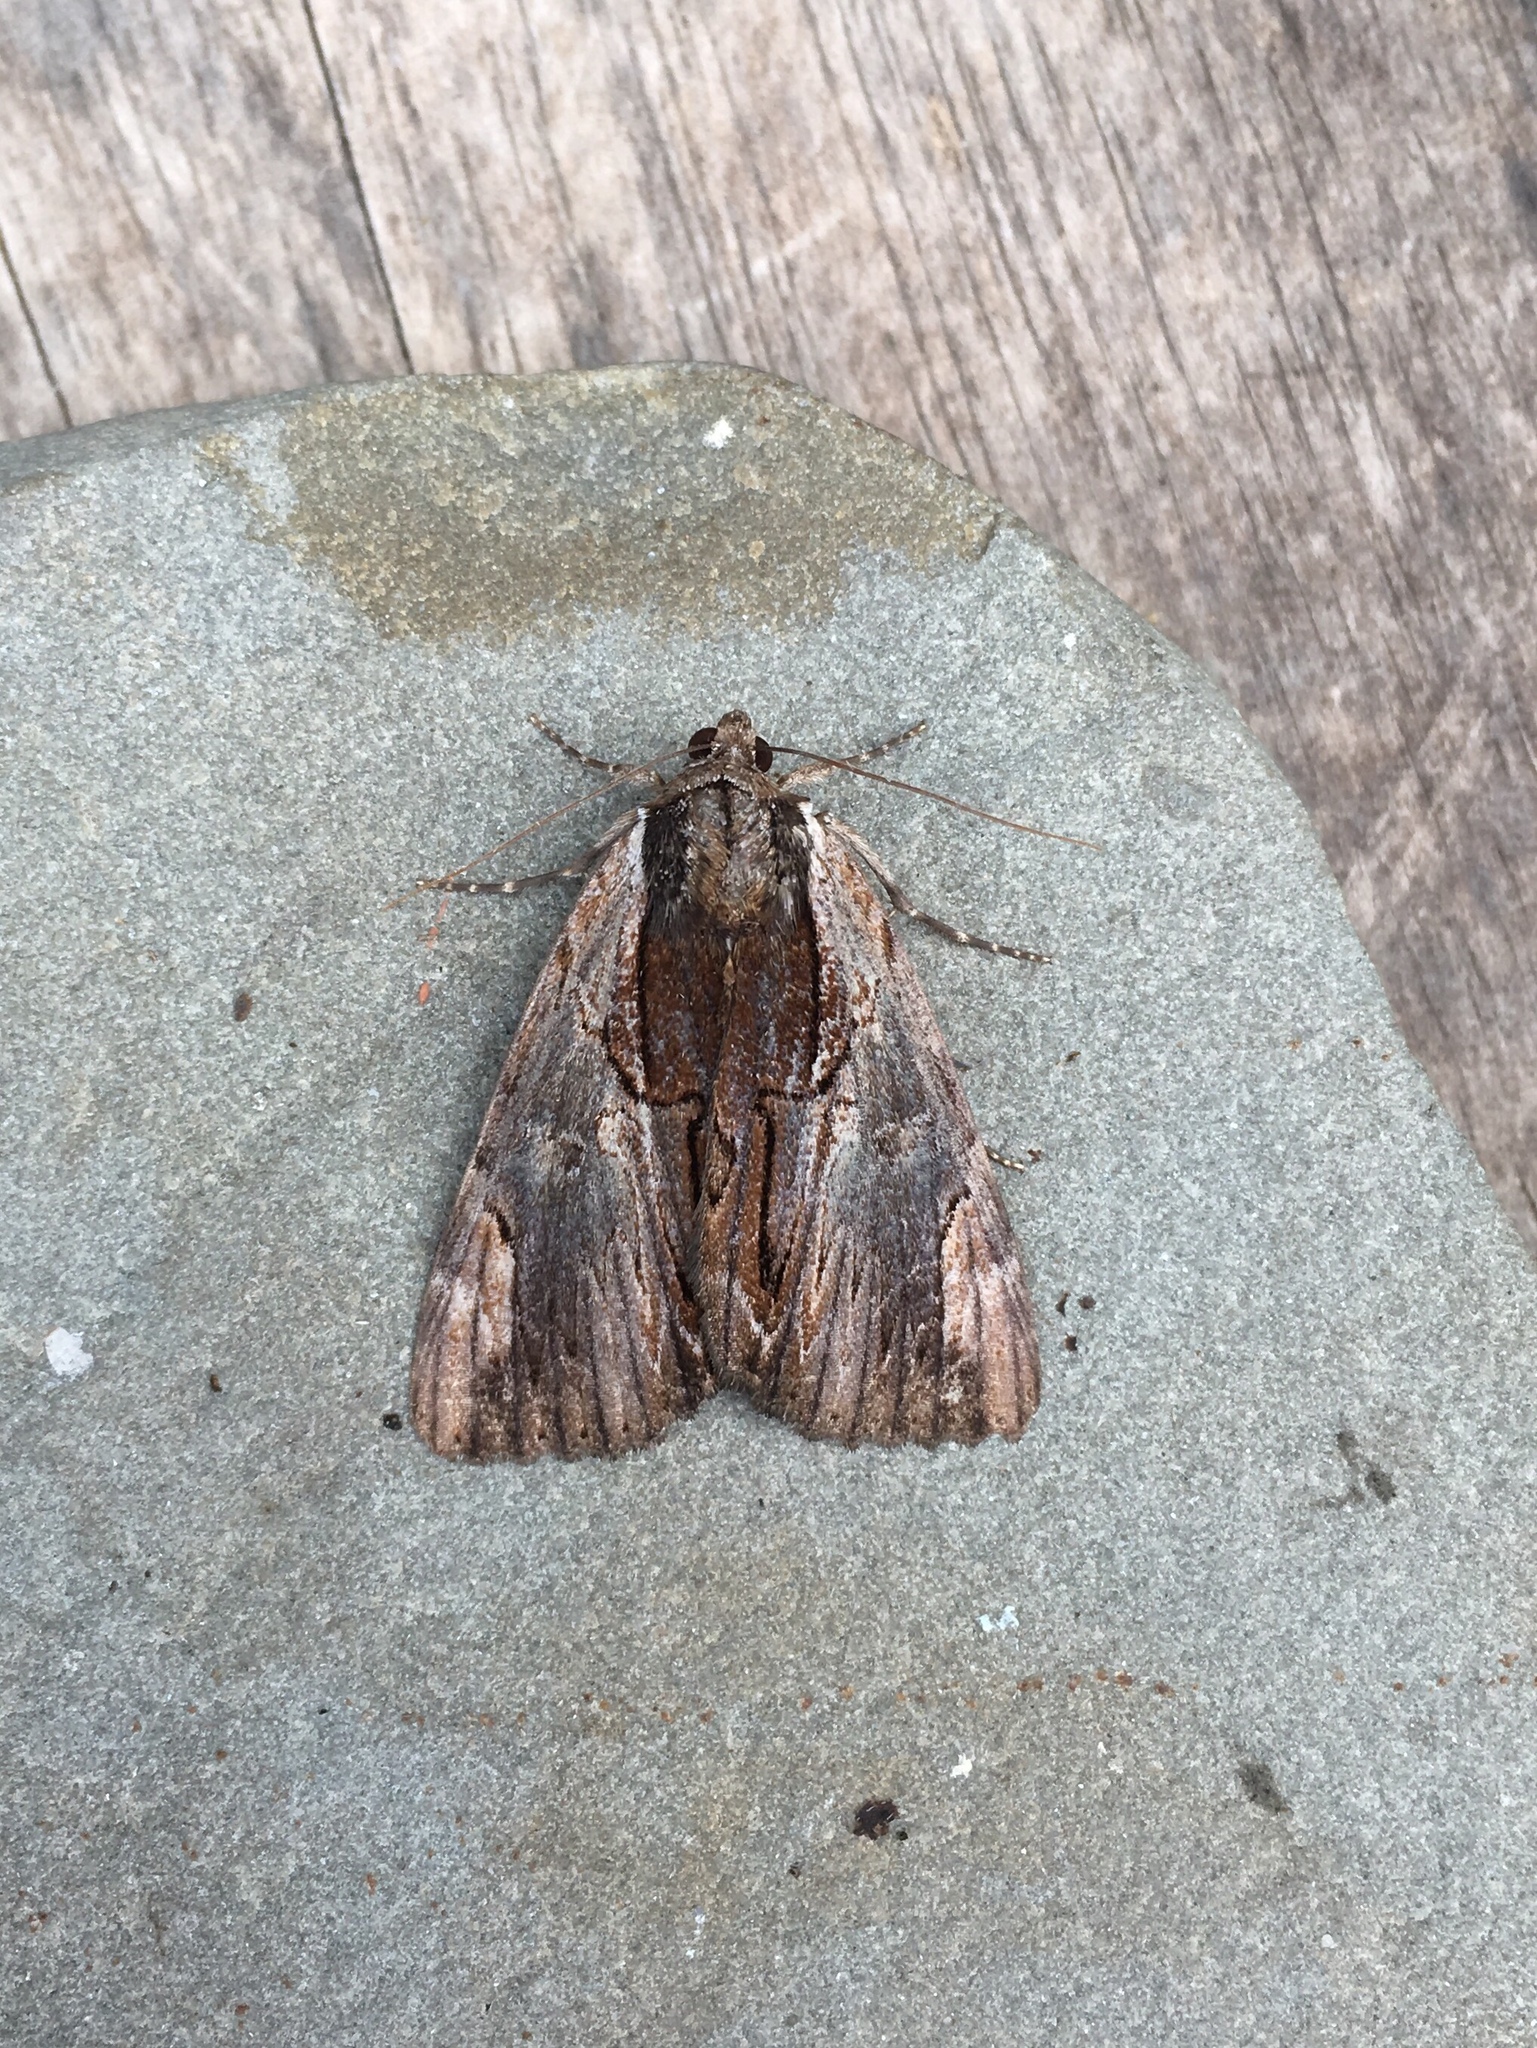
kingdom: Animalia
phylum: Arthropoda
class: Insecta
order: Lepidoptera
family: Erebidae
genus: Catocala
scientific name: Catocala ultronia
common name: Ultronia underwing
